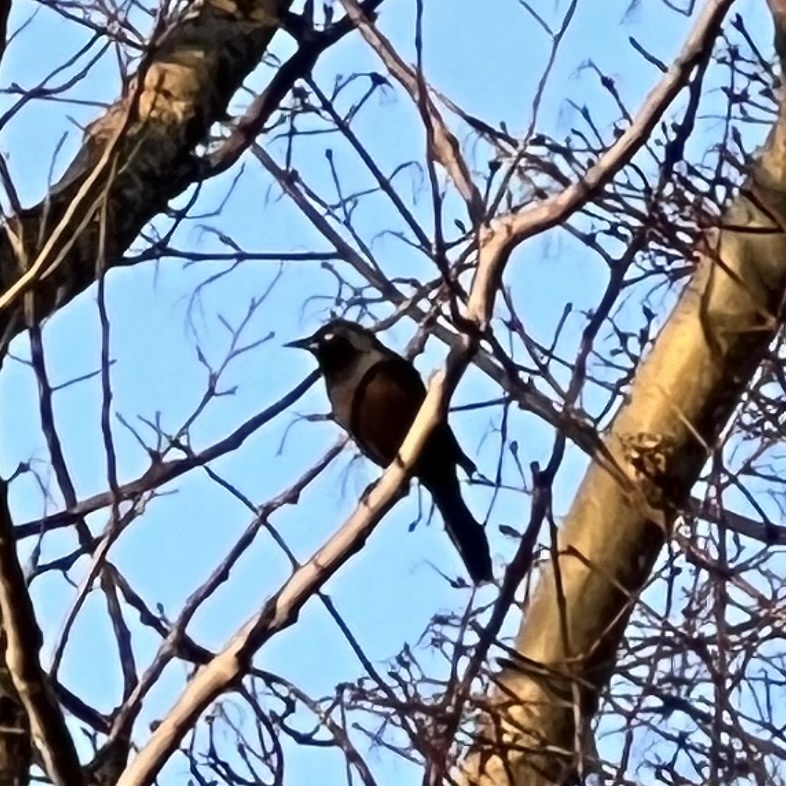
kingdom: Animalia
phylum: Chordata
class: Aves
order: Passeriformes
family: Icteridae
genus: Quiscalus
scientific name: Quiscalus quiscula
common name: Common grackle
